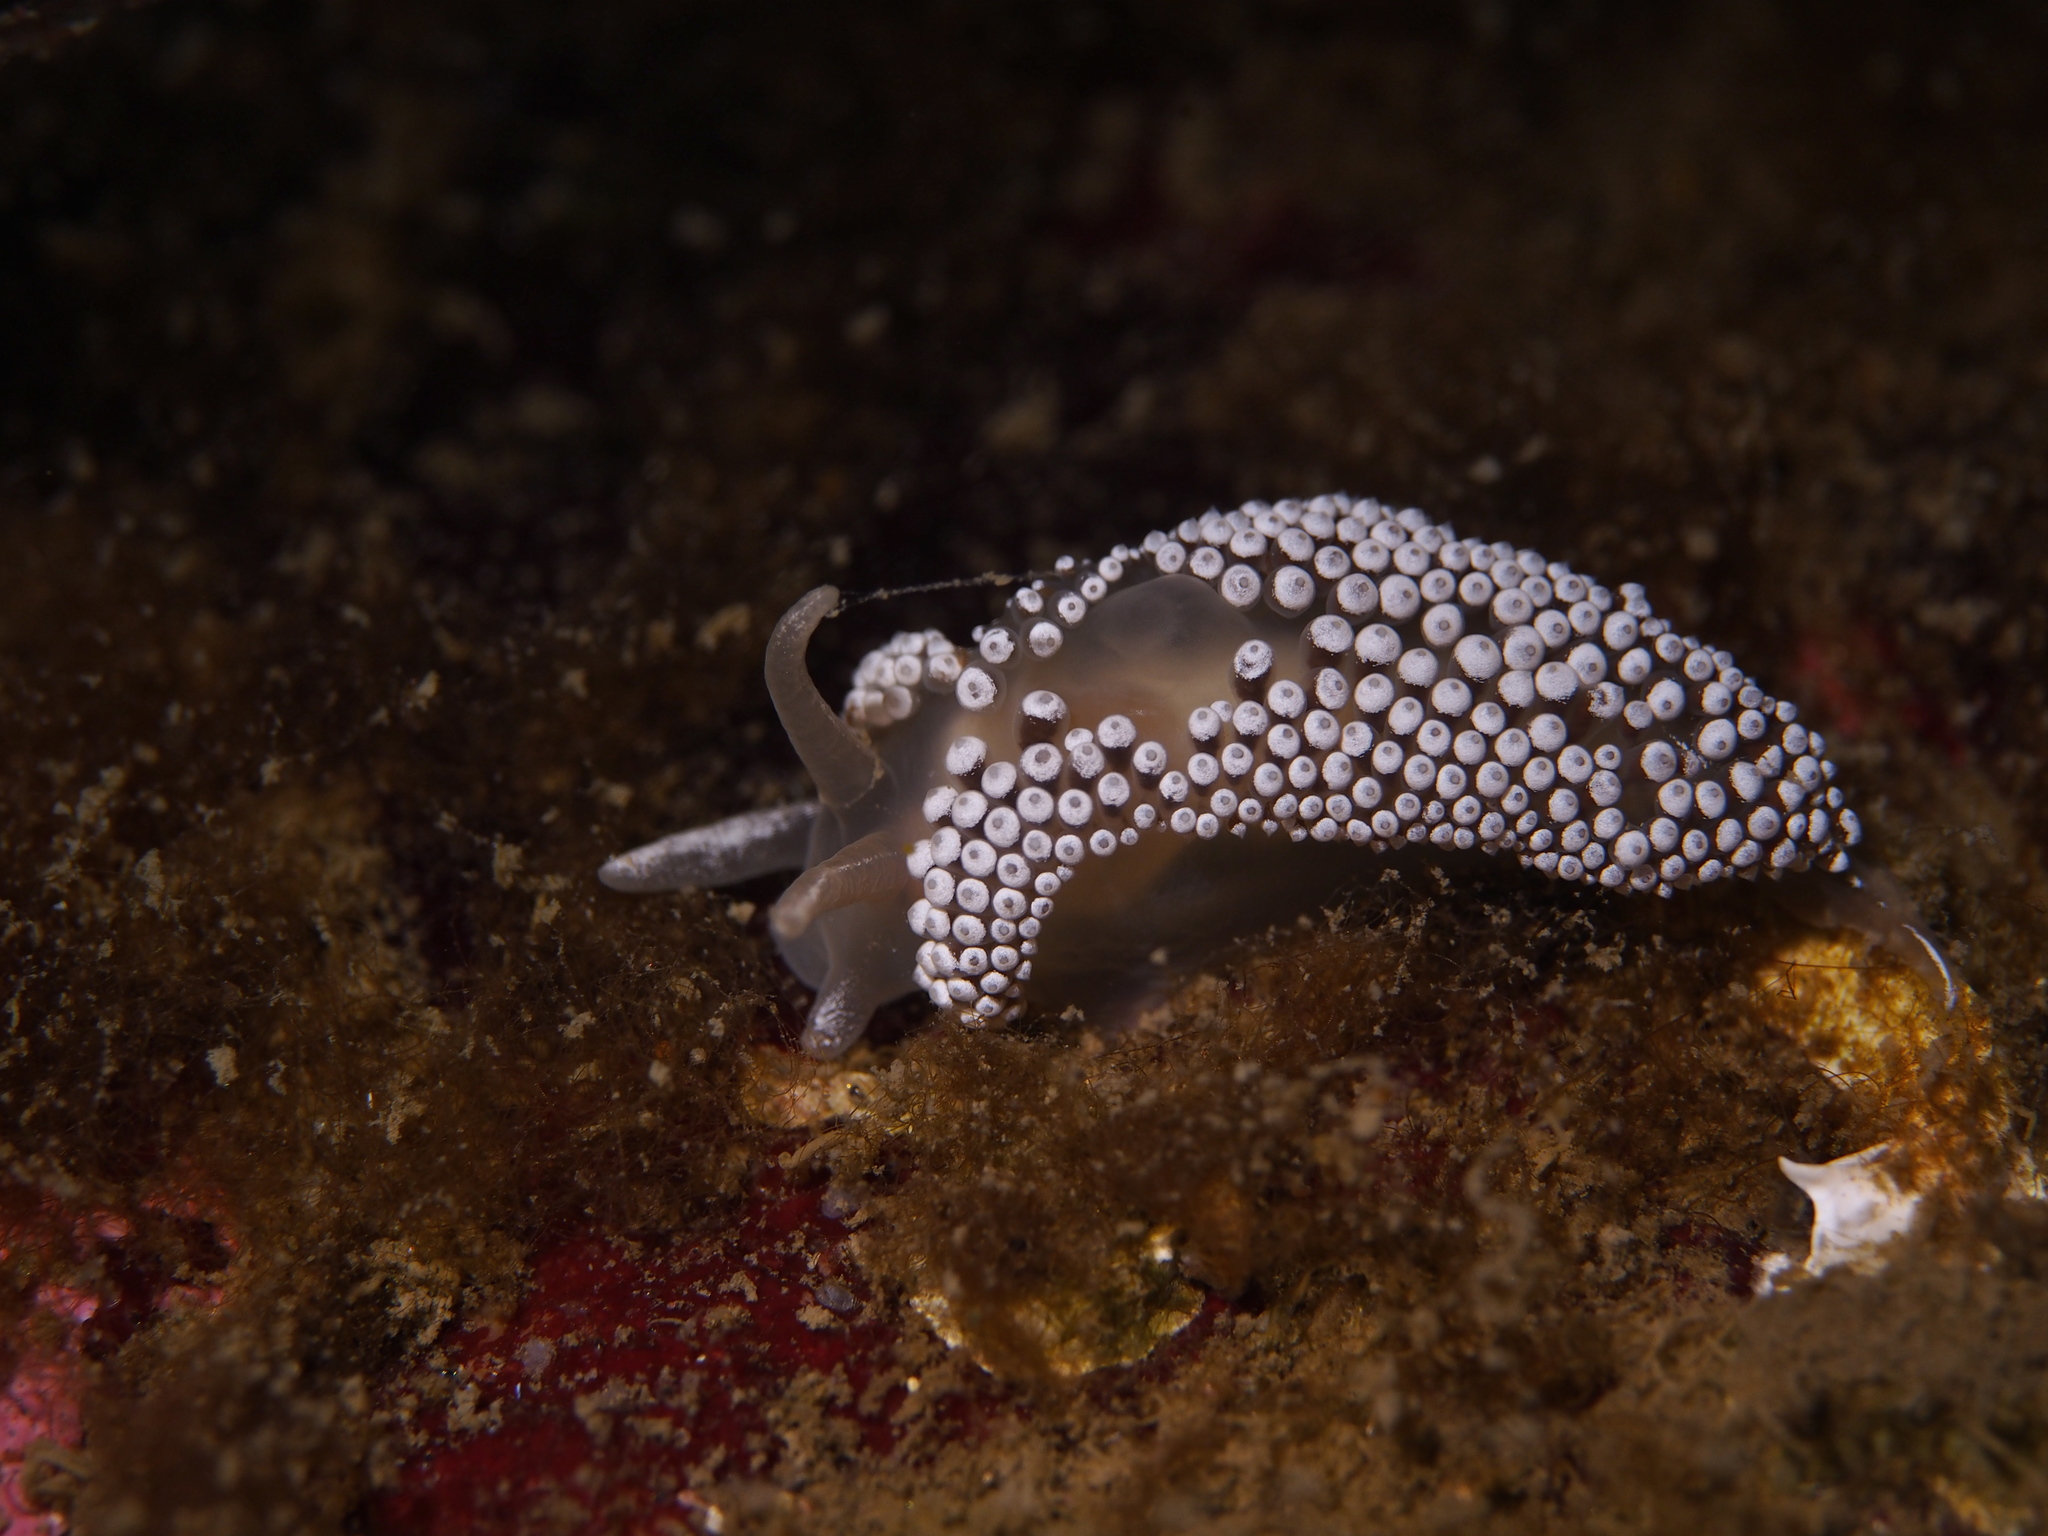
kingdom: Animalia
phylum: Mollusca
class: Gastropoda
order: Nudibranchia
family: Coryphellidae
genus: Coryphella
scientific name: Coryphella verrucosa
